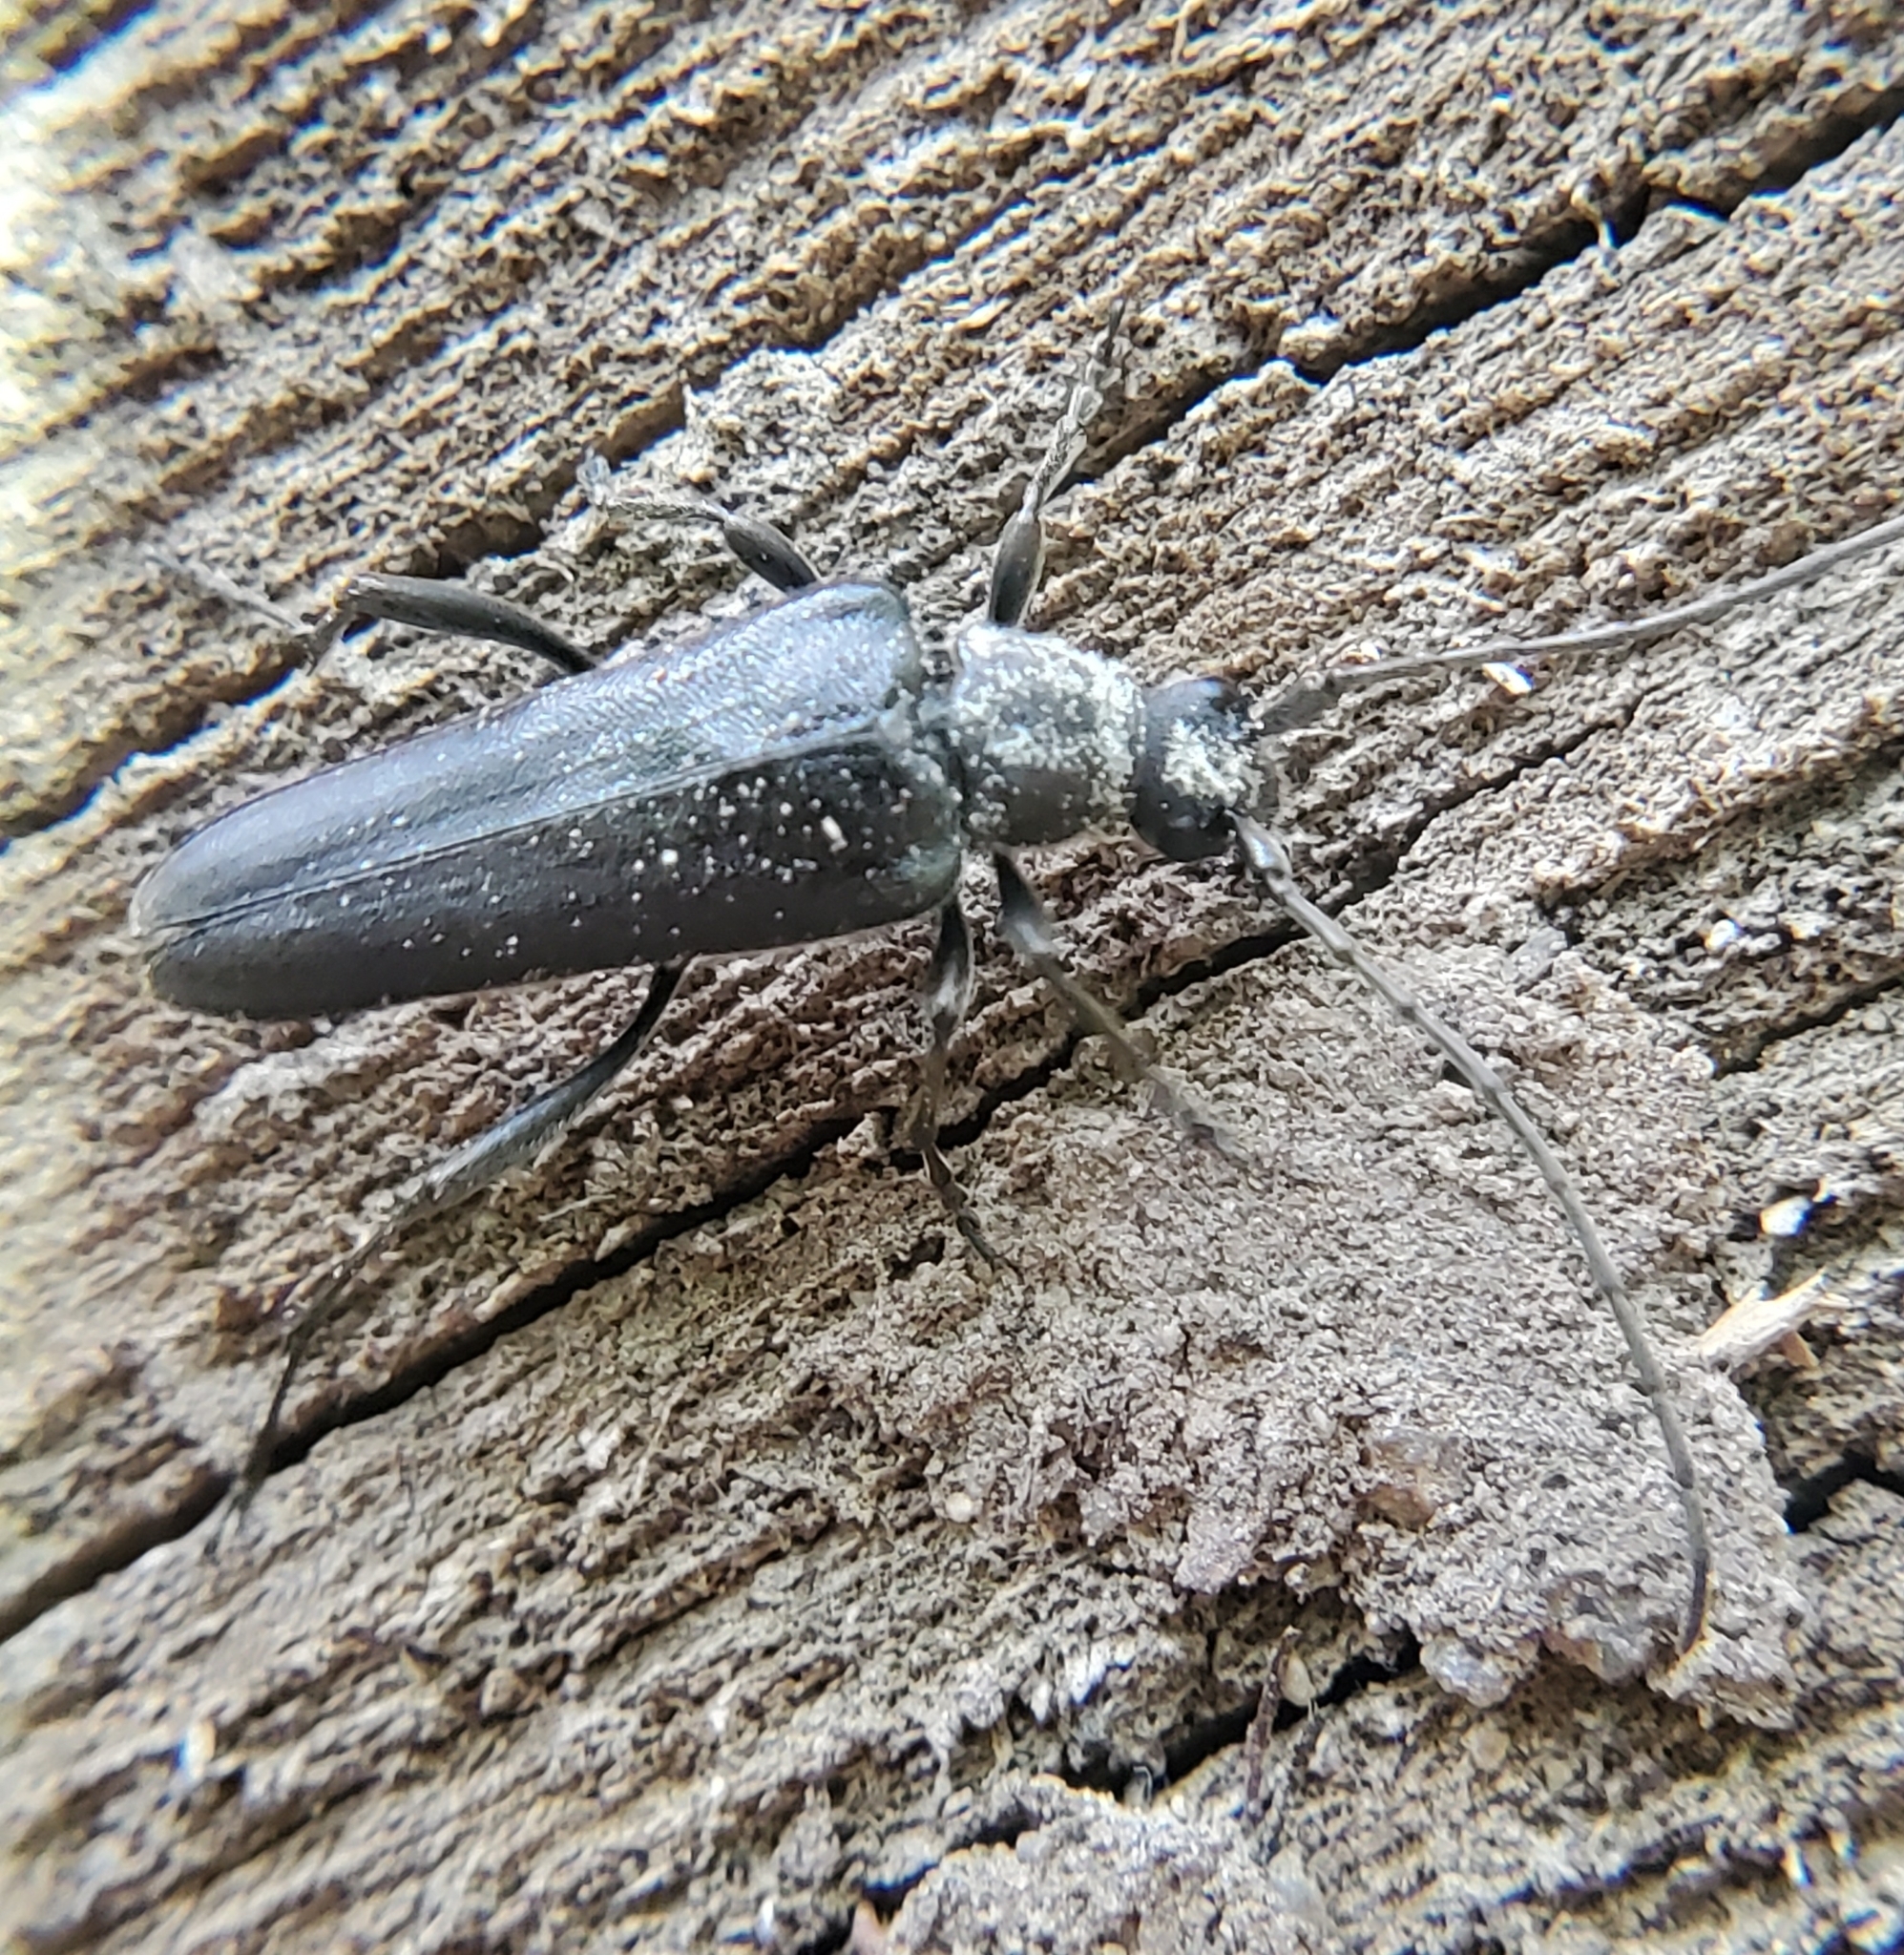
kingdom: Animalia
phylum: Arthropoda
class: Insecta
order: Coleoptera
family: Cerambycidae
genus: Trachysida
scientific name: Trachysida mutabilis
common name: Changeable flower longhorn
